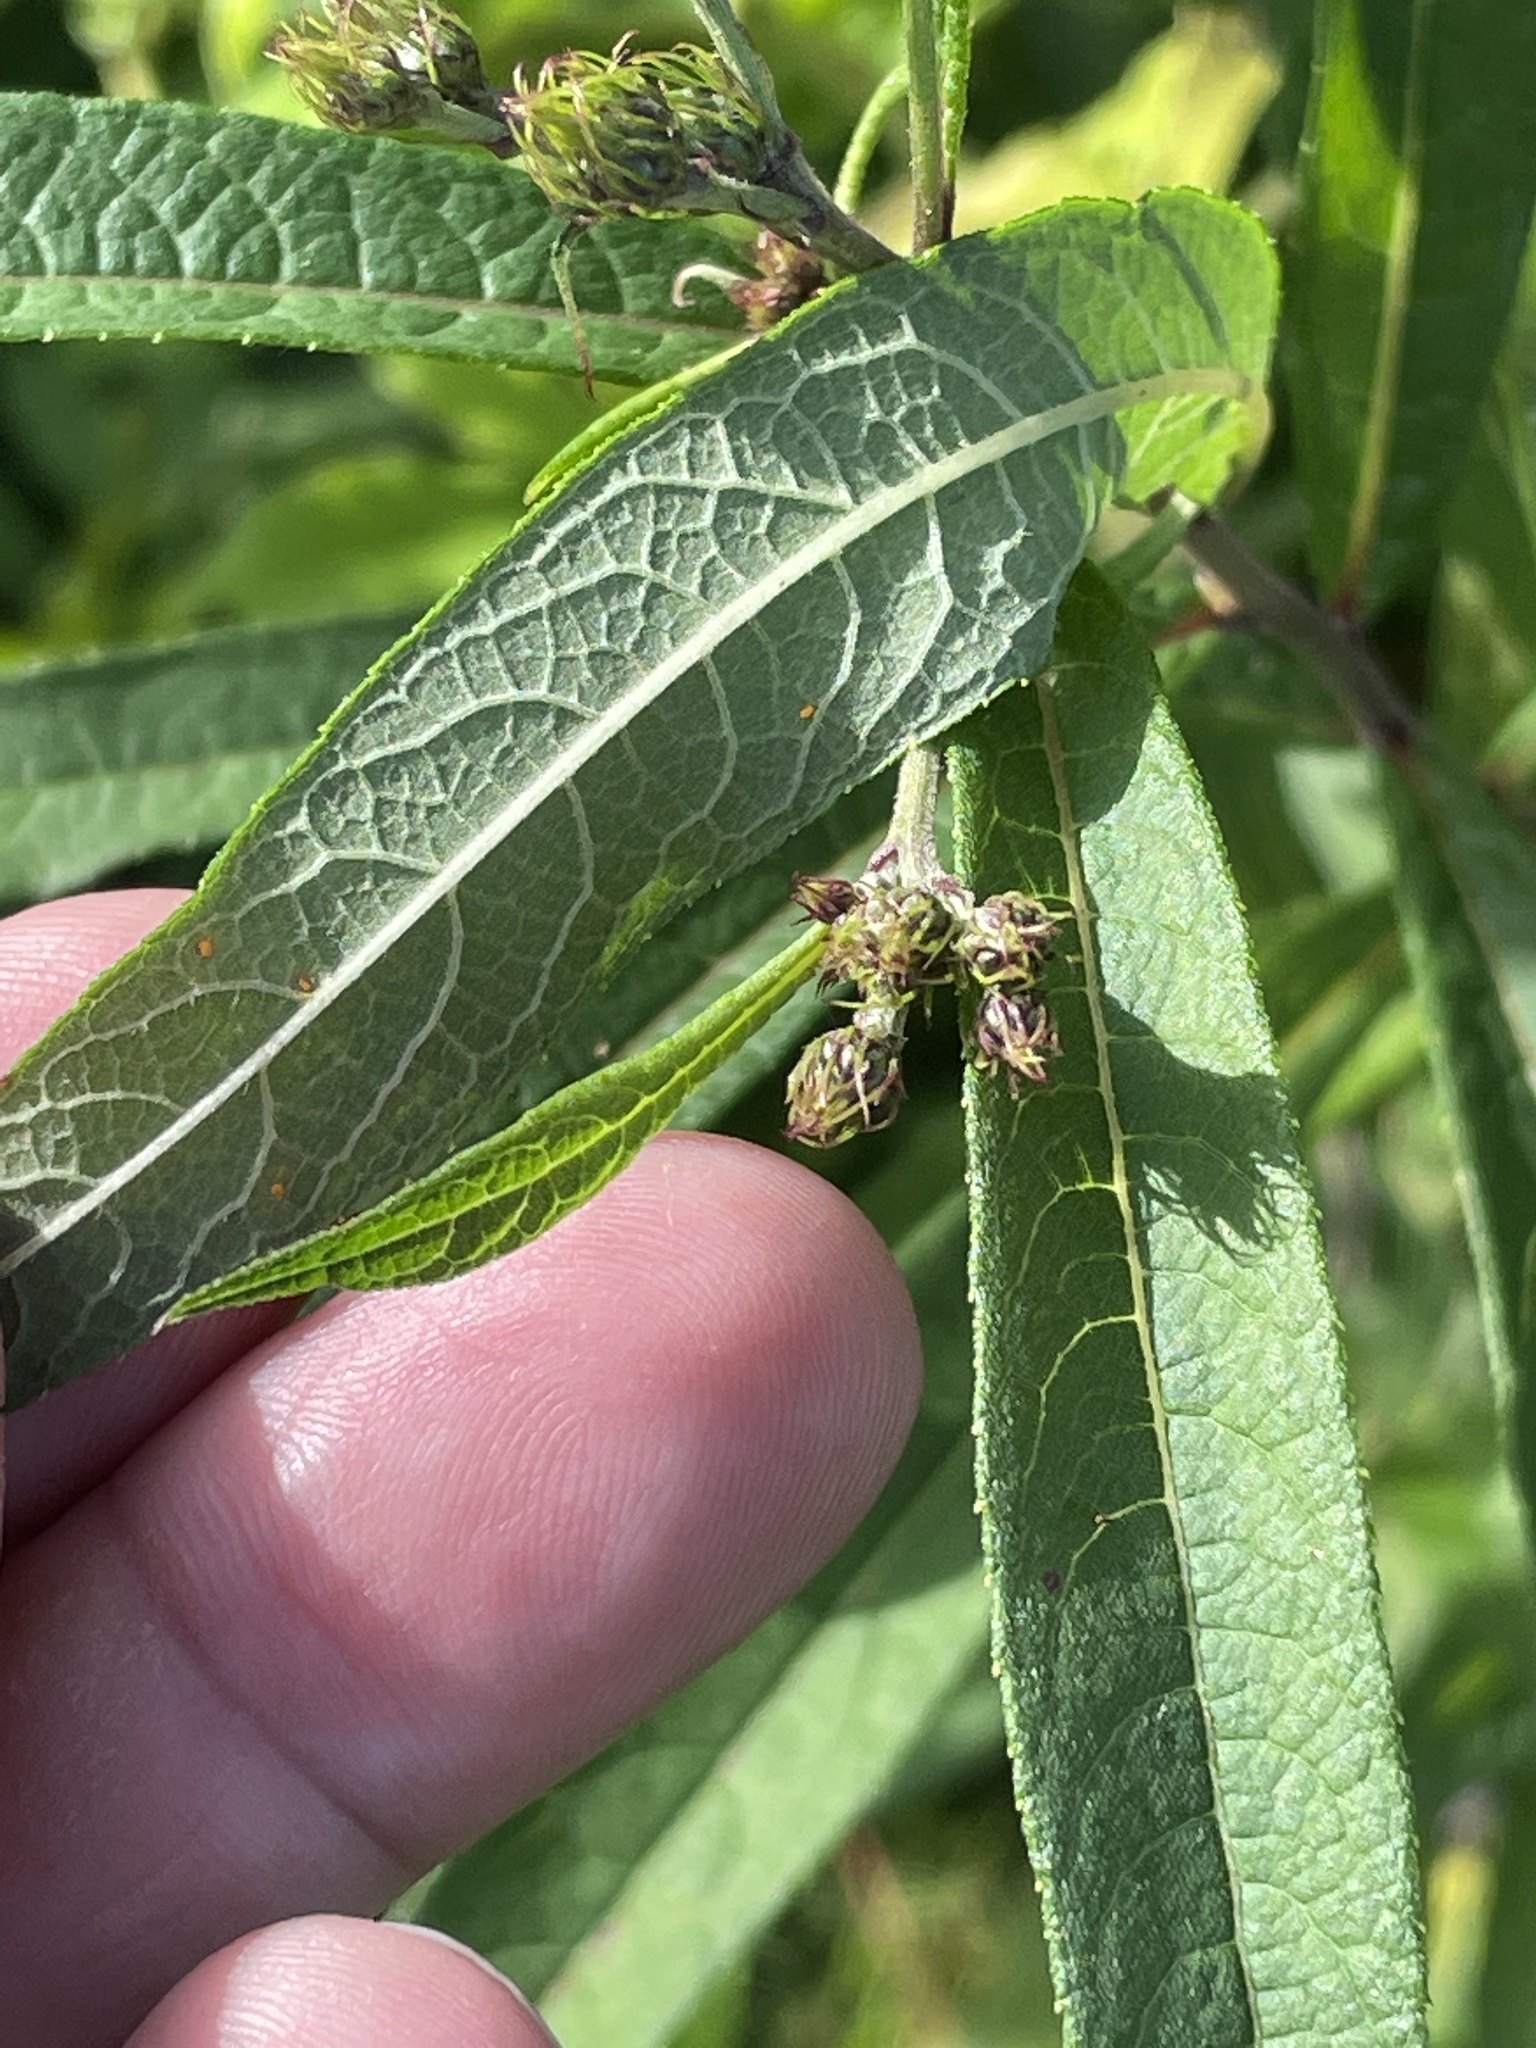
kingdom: Plantae
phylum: Tracheophyta
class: Magnoliopsida
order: Asterales
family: Asteraceae
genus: Vernonia
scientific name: Vernonia noveboracensis
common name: New york ironweed
